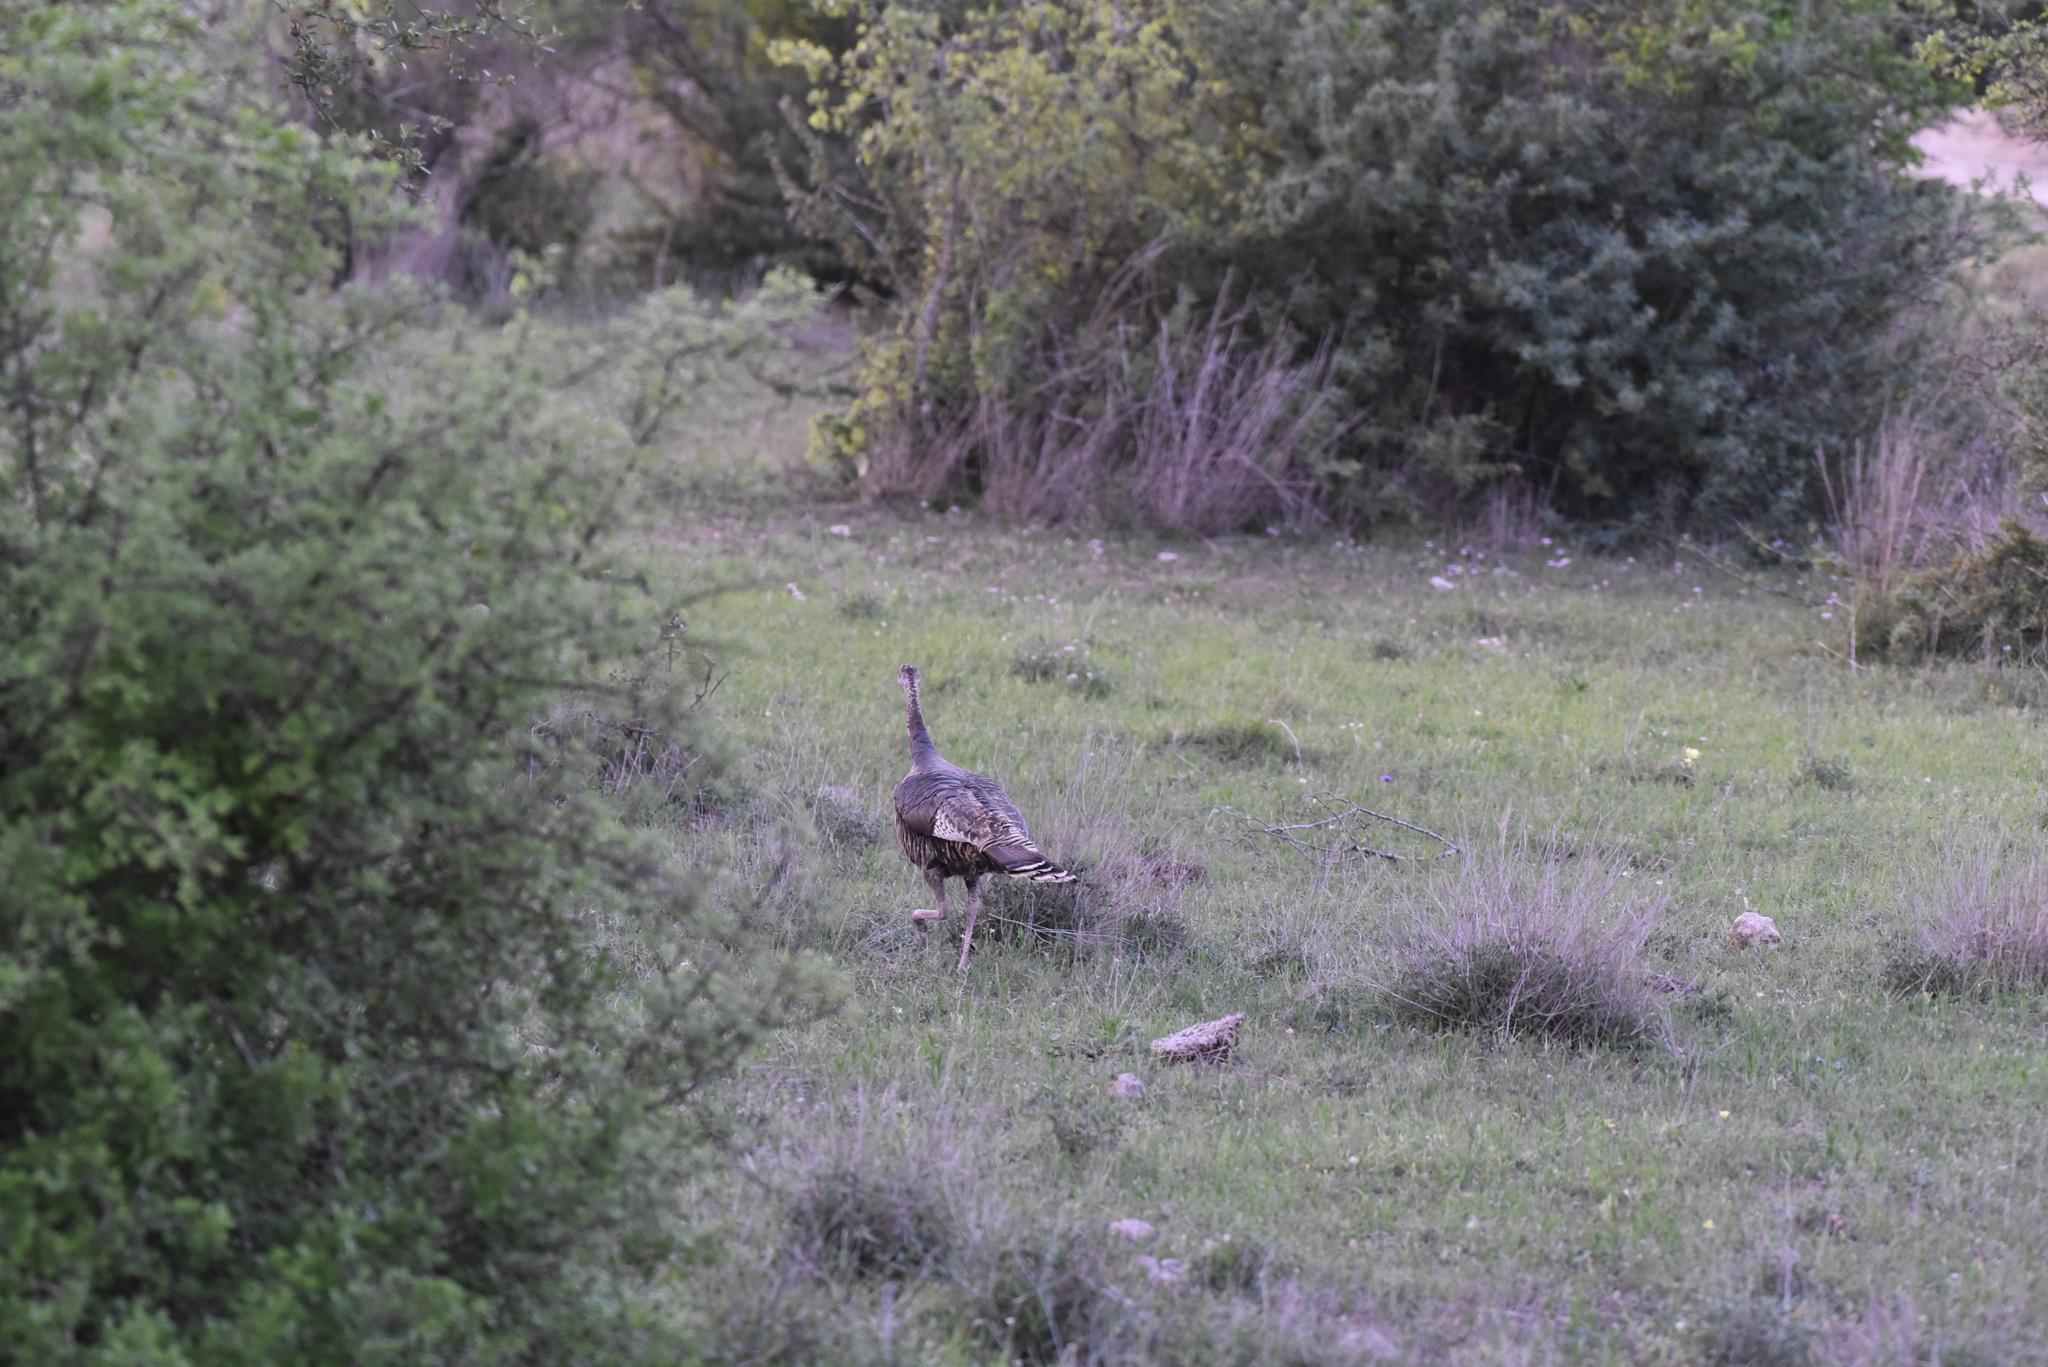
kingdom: Animalia
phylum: Chordata
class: Aves
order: Galliformes
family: Phasianidae
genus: Meleagris
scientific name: Meleagris gallopavo
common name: Wild turkey
